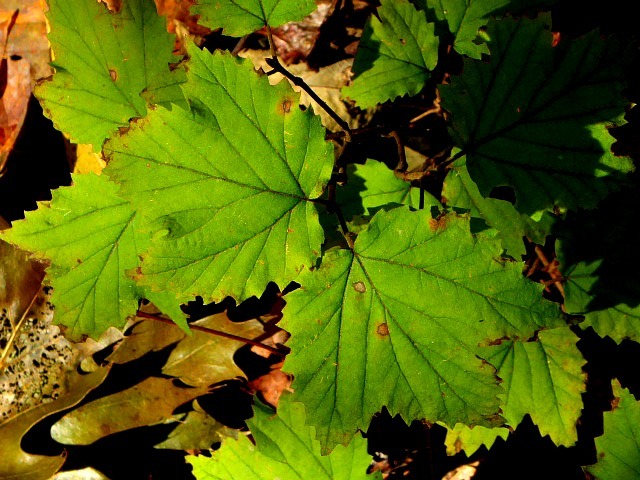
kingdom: Plantae
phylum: Tracheophyta
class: Magnoliopsida
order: Dipsacales
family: Viburnaceae
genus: Viburnum
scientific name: Viburnum acerifolium
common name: Dockmackie
